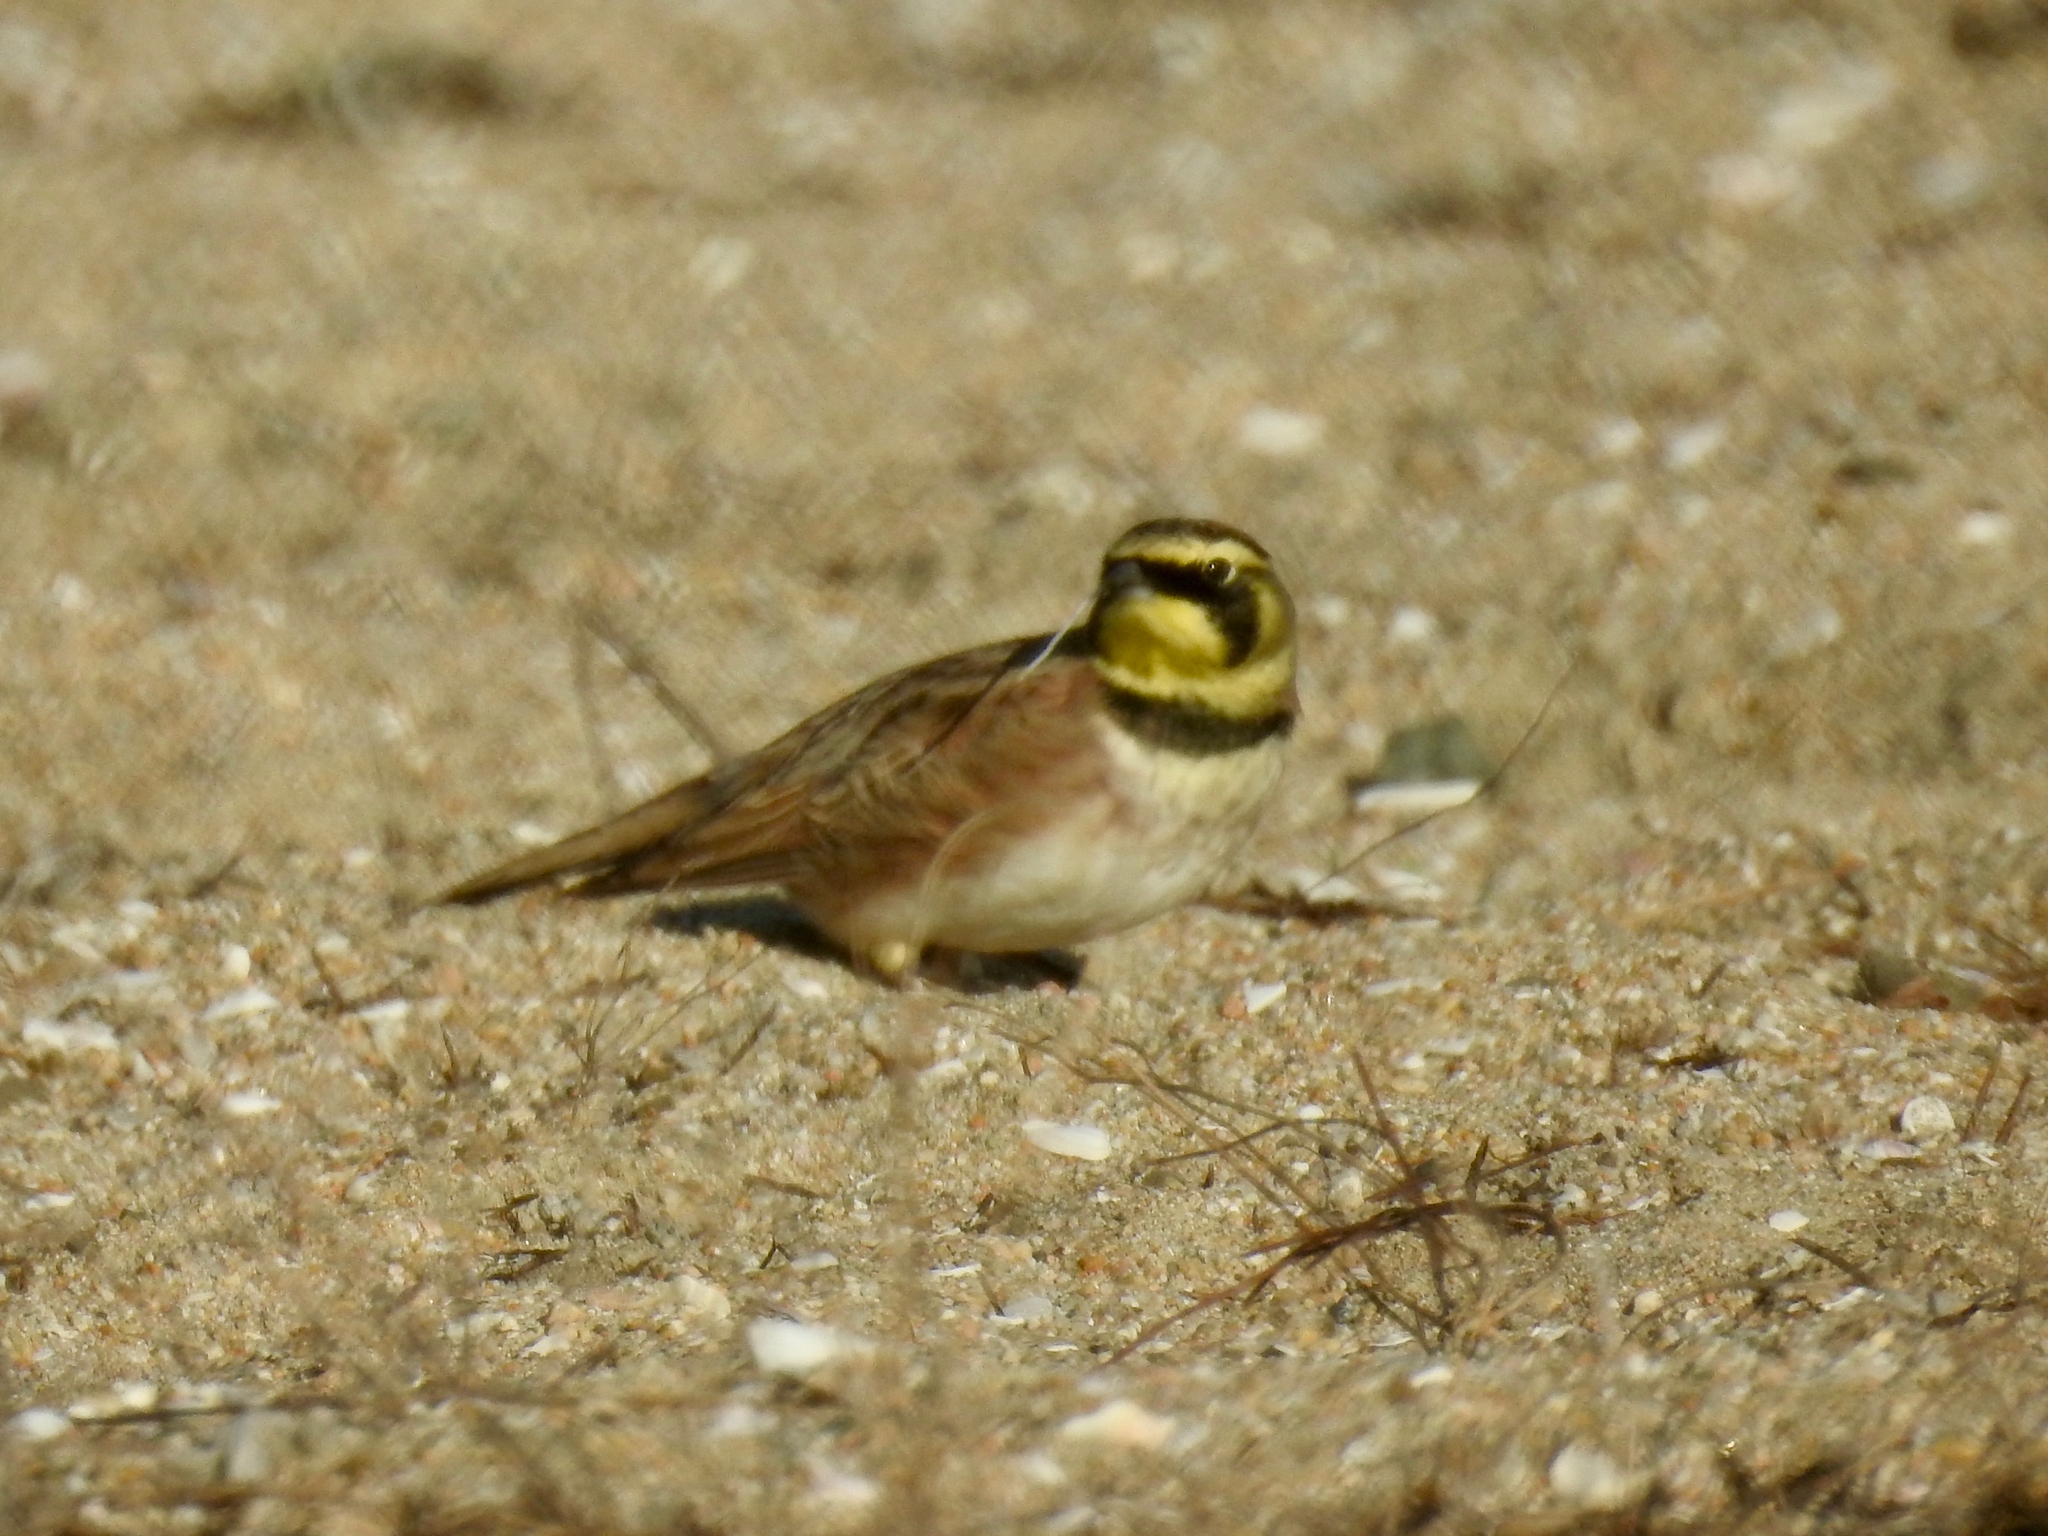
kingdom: Animalia
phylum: Chordata
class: Aves
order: Passeriformes
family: Alaudidae
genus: Eremophila
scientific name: Eremophila alpestris
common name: Horned lark
